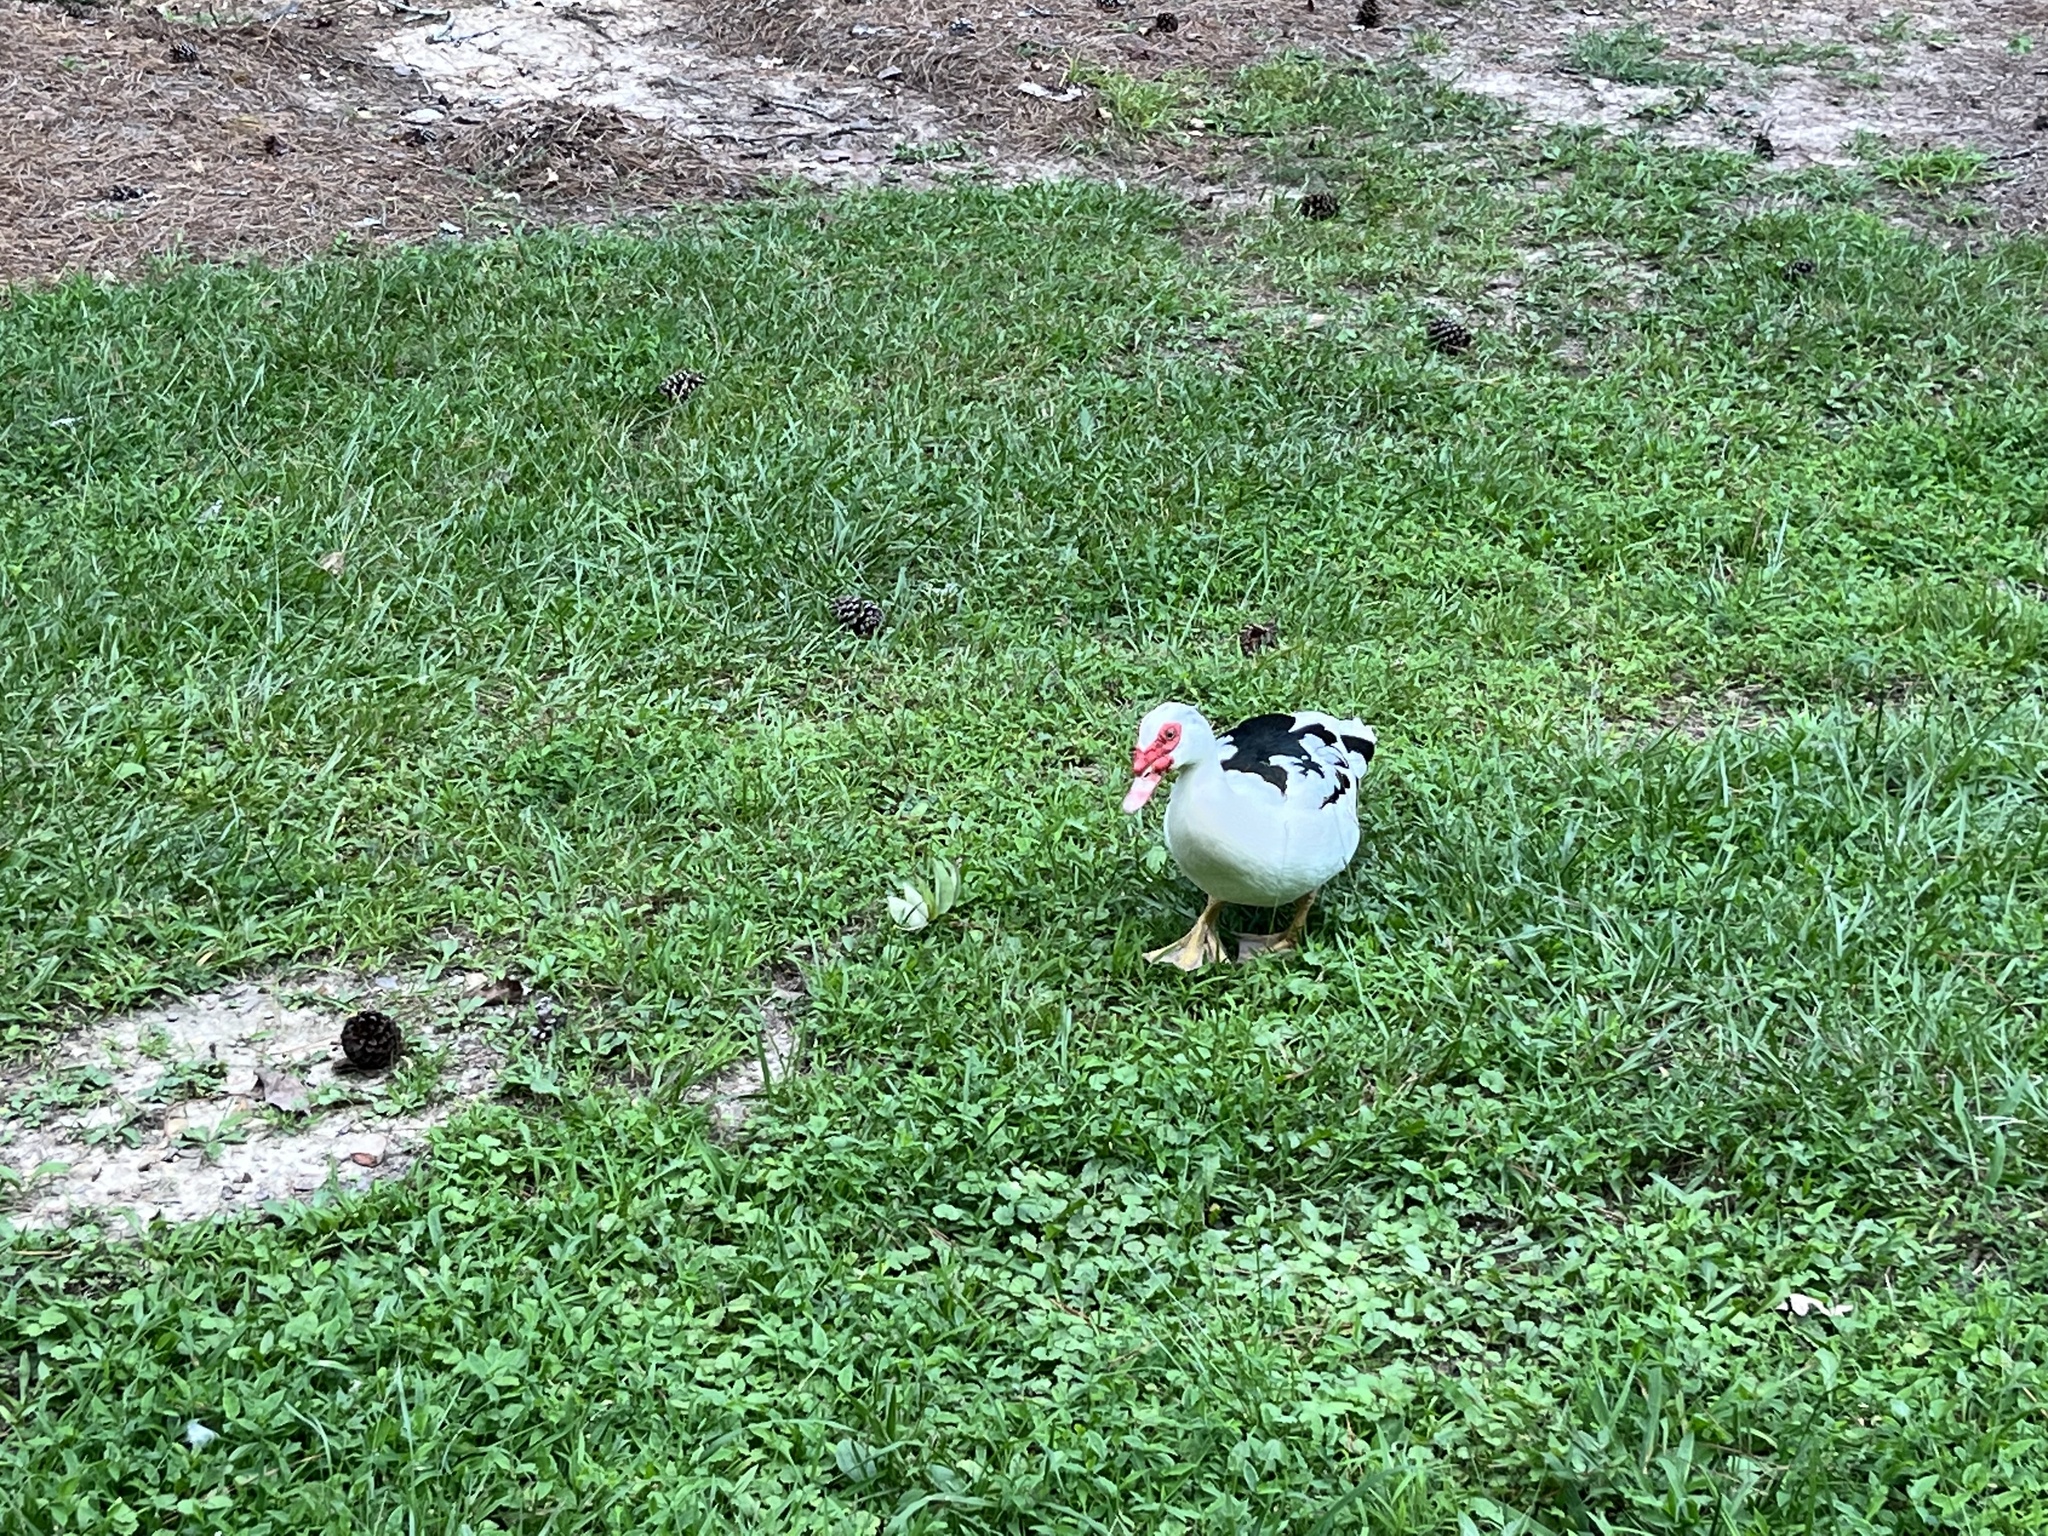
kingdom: Animalia
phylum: Chordata
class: Aves
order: Anseriformes
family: Anatidae
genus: Cairina
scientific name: Cairina moschata
